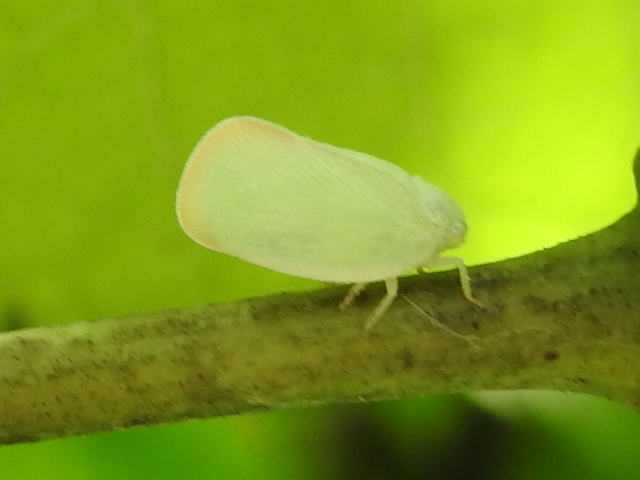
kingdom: Animalia
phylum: Arthropoda
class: Insecta
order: Hemiptera
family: Flatidae
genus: Ormenoides
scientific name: Ormenoides venusta
